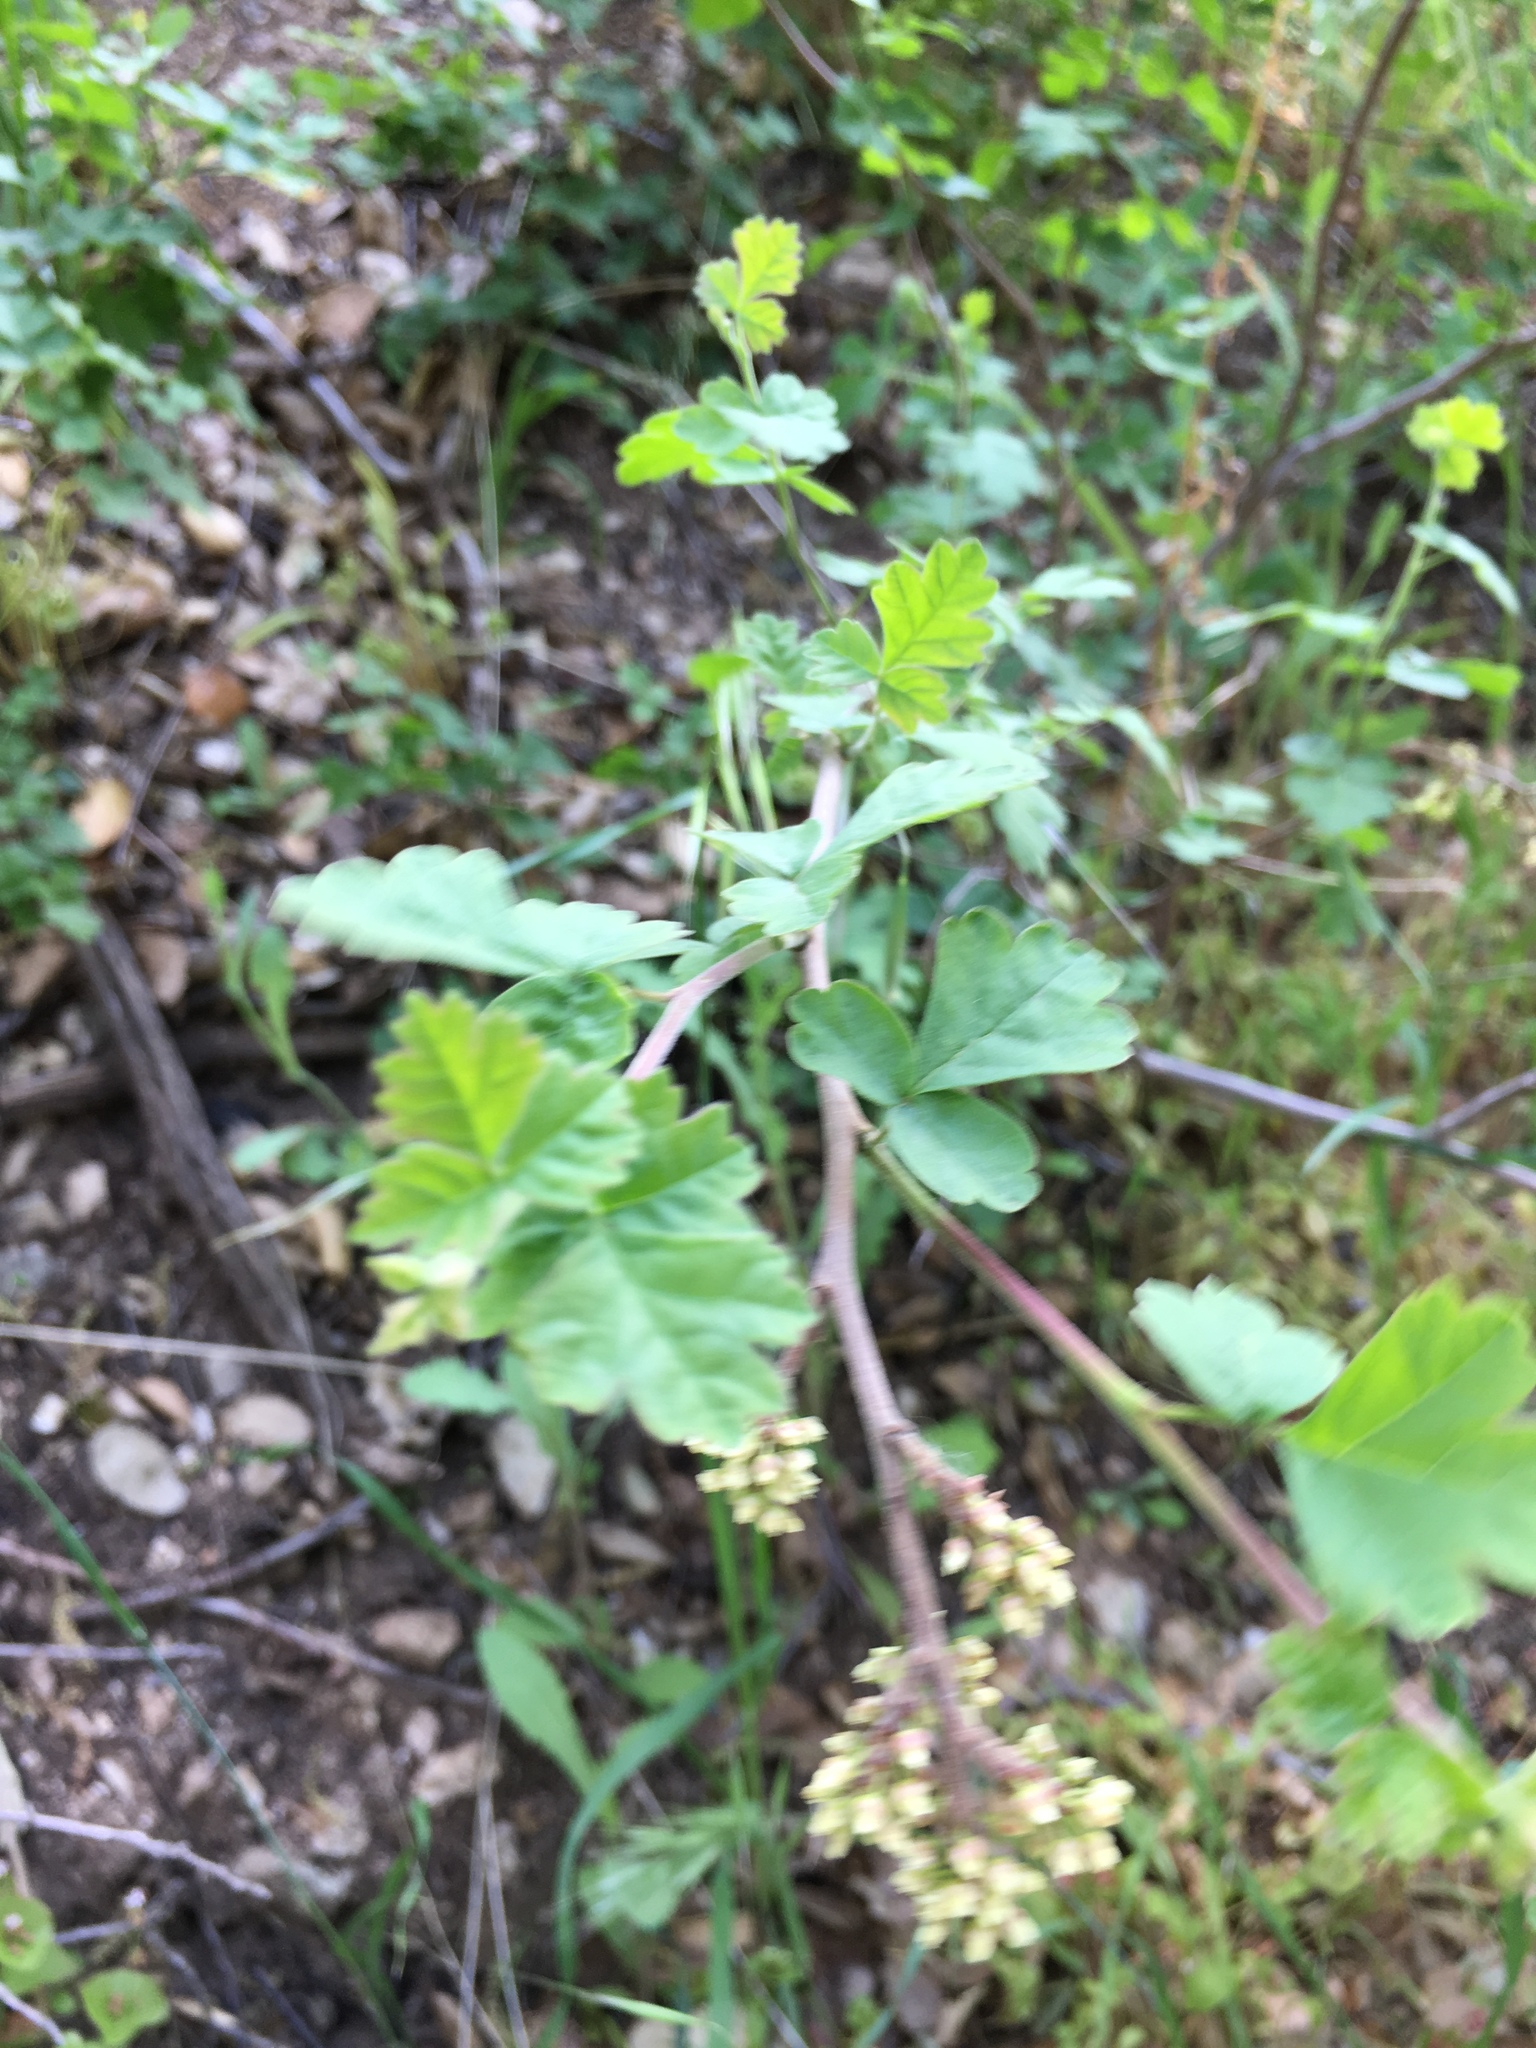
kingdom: Plantae
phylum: Tracheophyta
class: Magnoliopsida
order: Sapindales
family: Anacardiaceae
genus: Rhus
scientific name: Rhus aromatica
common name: Aromatic sumac
